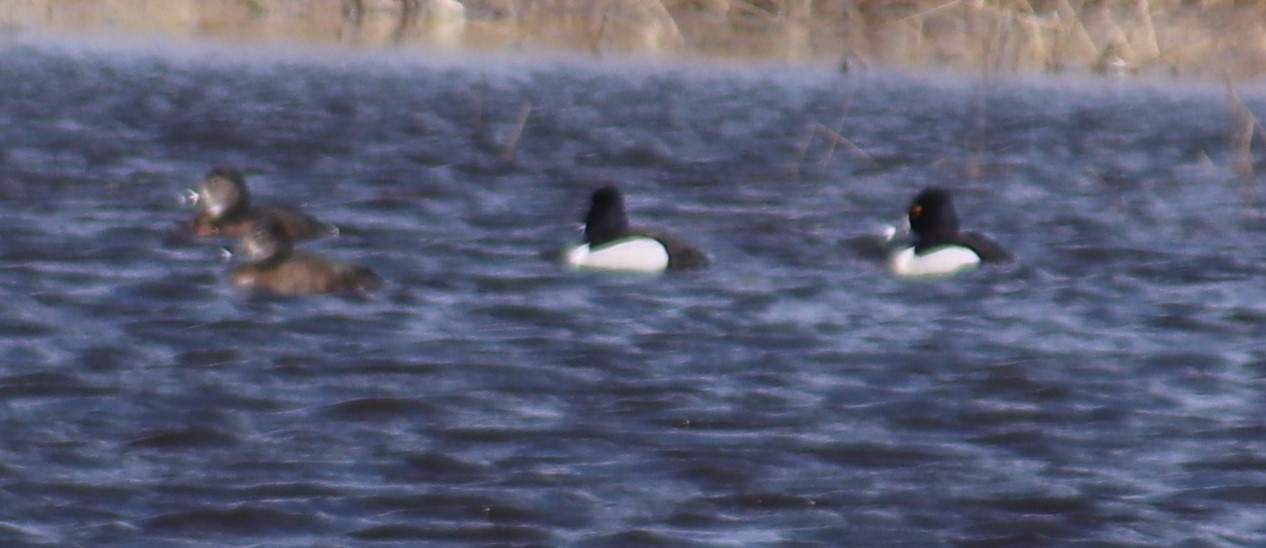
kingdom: Animalia
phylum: Chordata
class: Aves
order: Anseriformes
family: Anatidae
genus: Aythya
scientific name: Aythya collaris
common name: Ring-necked duck
